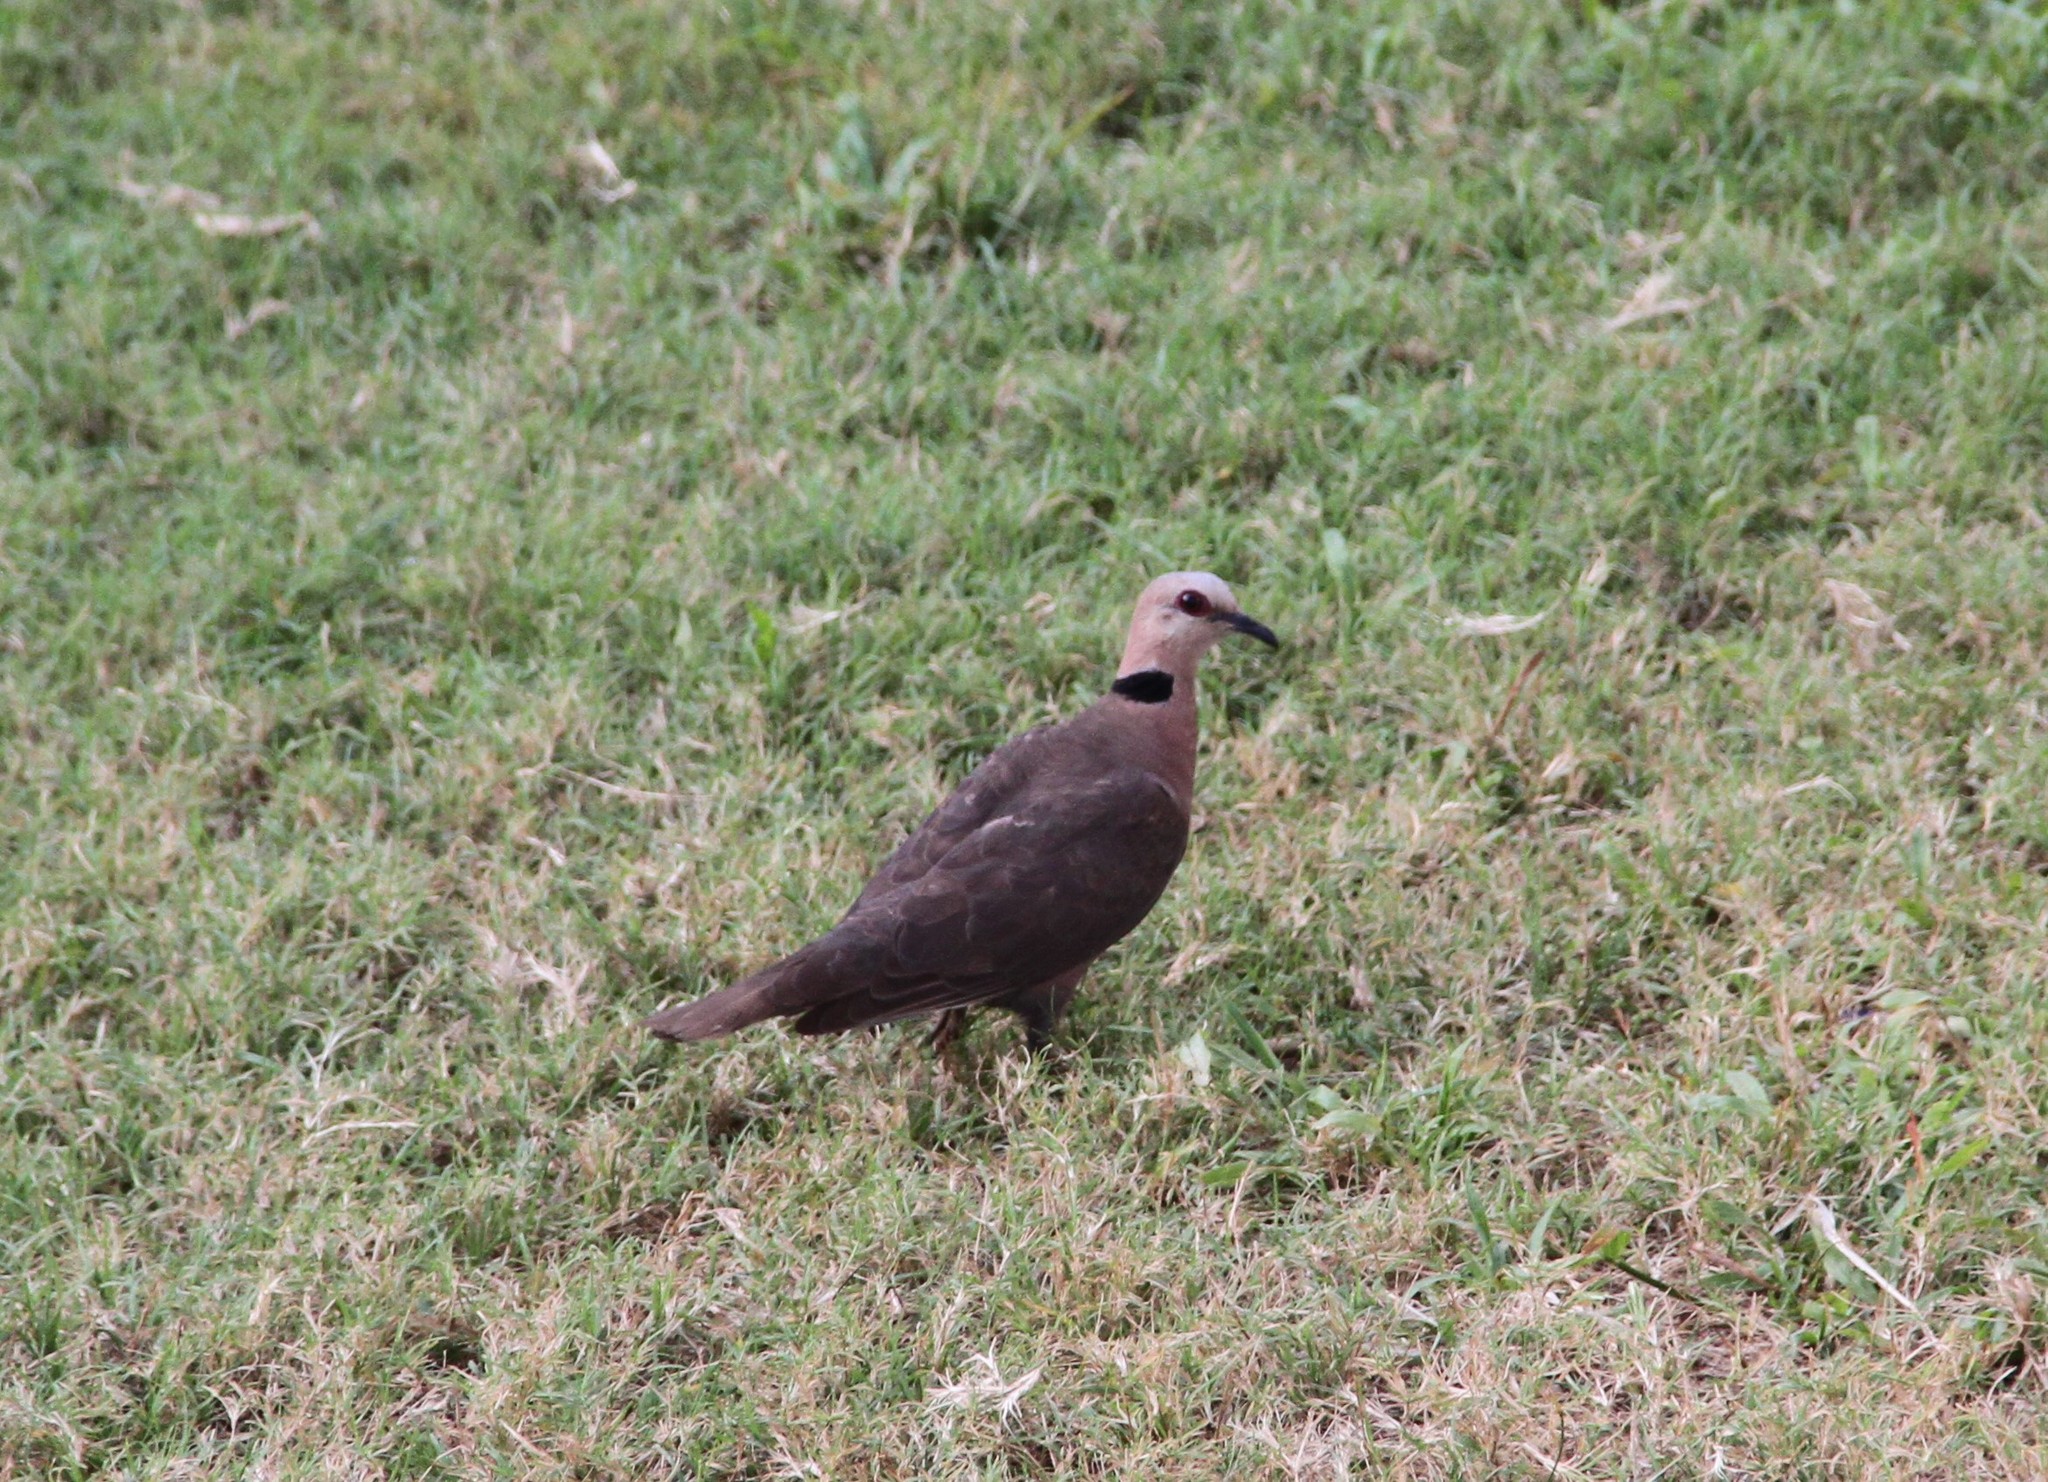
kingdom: Animalia
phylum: Chordata
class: Aves
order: Columbiformes
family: Columbidae
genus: Streptopelia
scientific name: Streptopelia semitorquata
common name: Red-eyed dove
